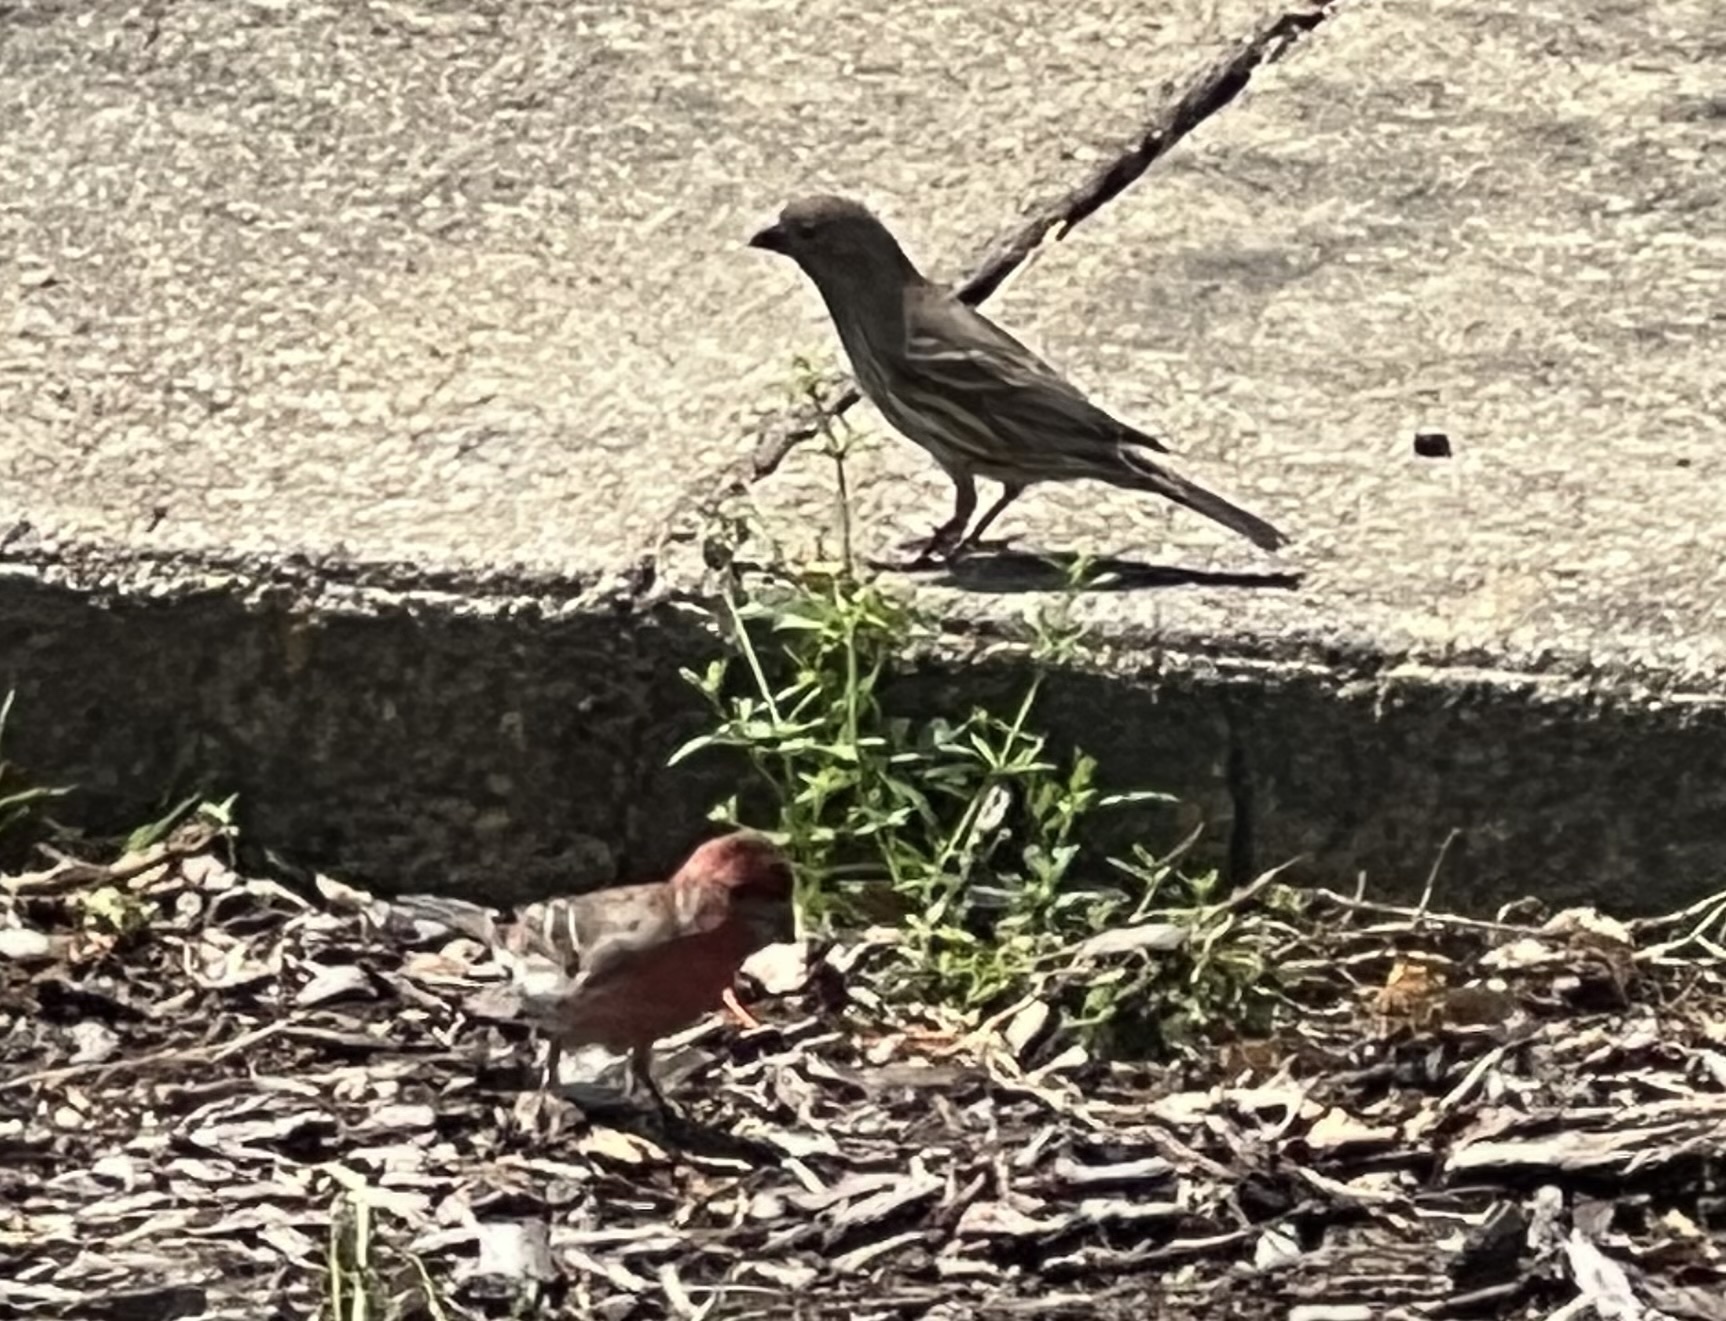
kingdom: Animalia
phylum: Chordata
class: Aves
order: Passeriformes
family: Fringillidae
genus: Haemorhous
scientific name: Haemorhous mexicanus
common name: House finch
